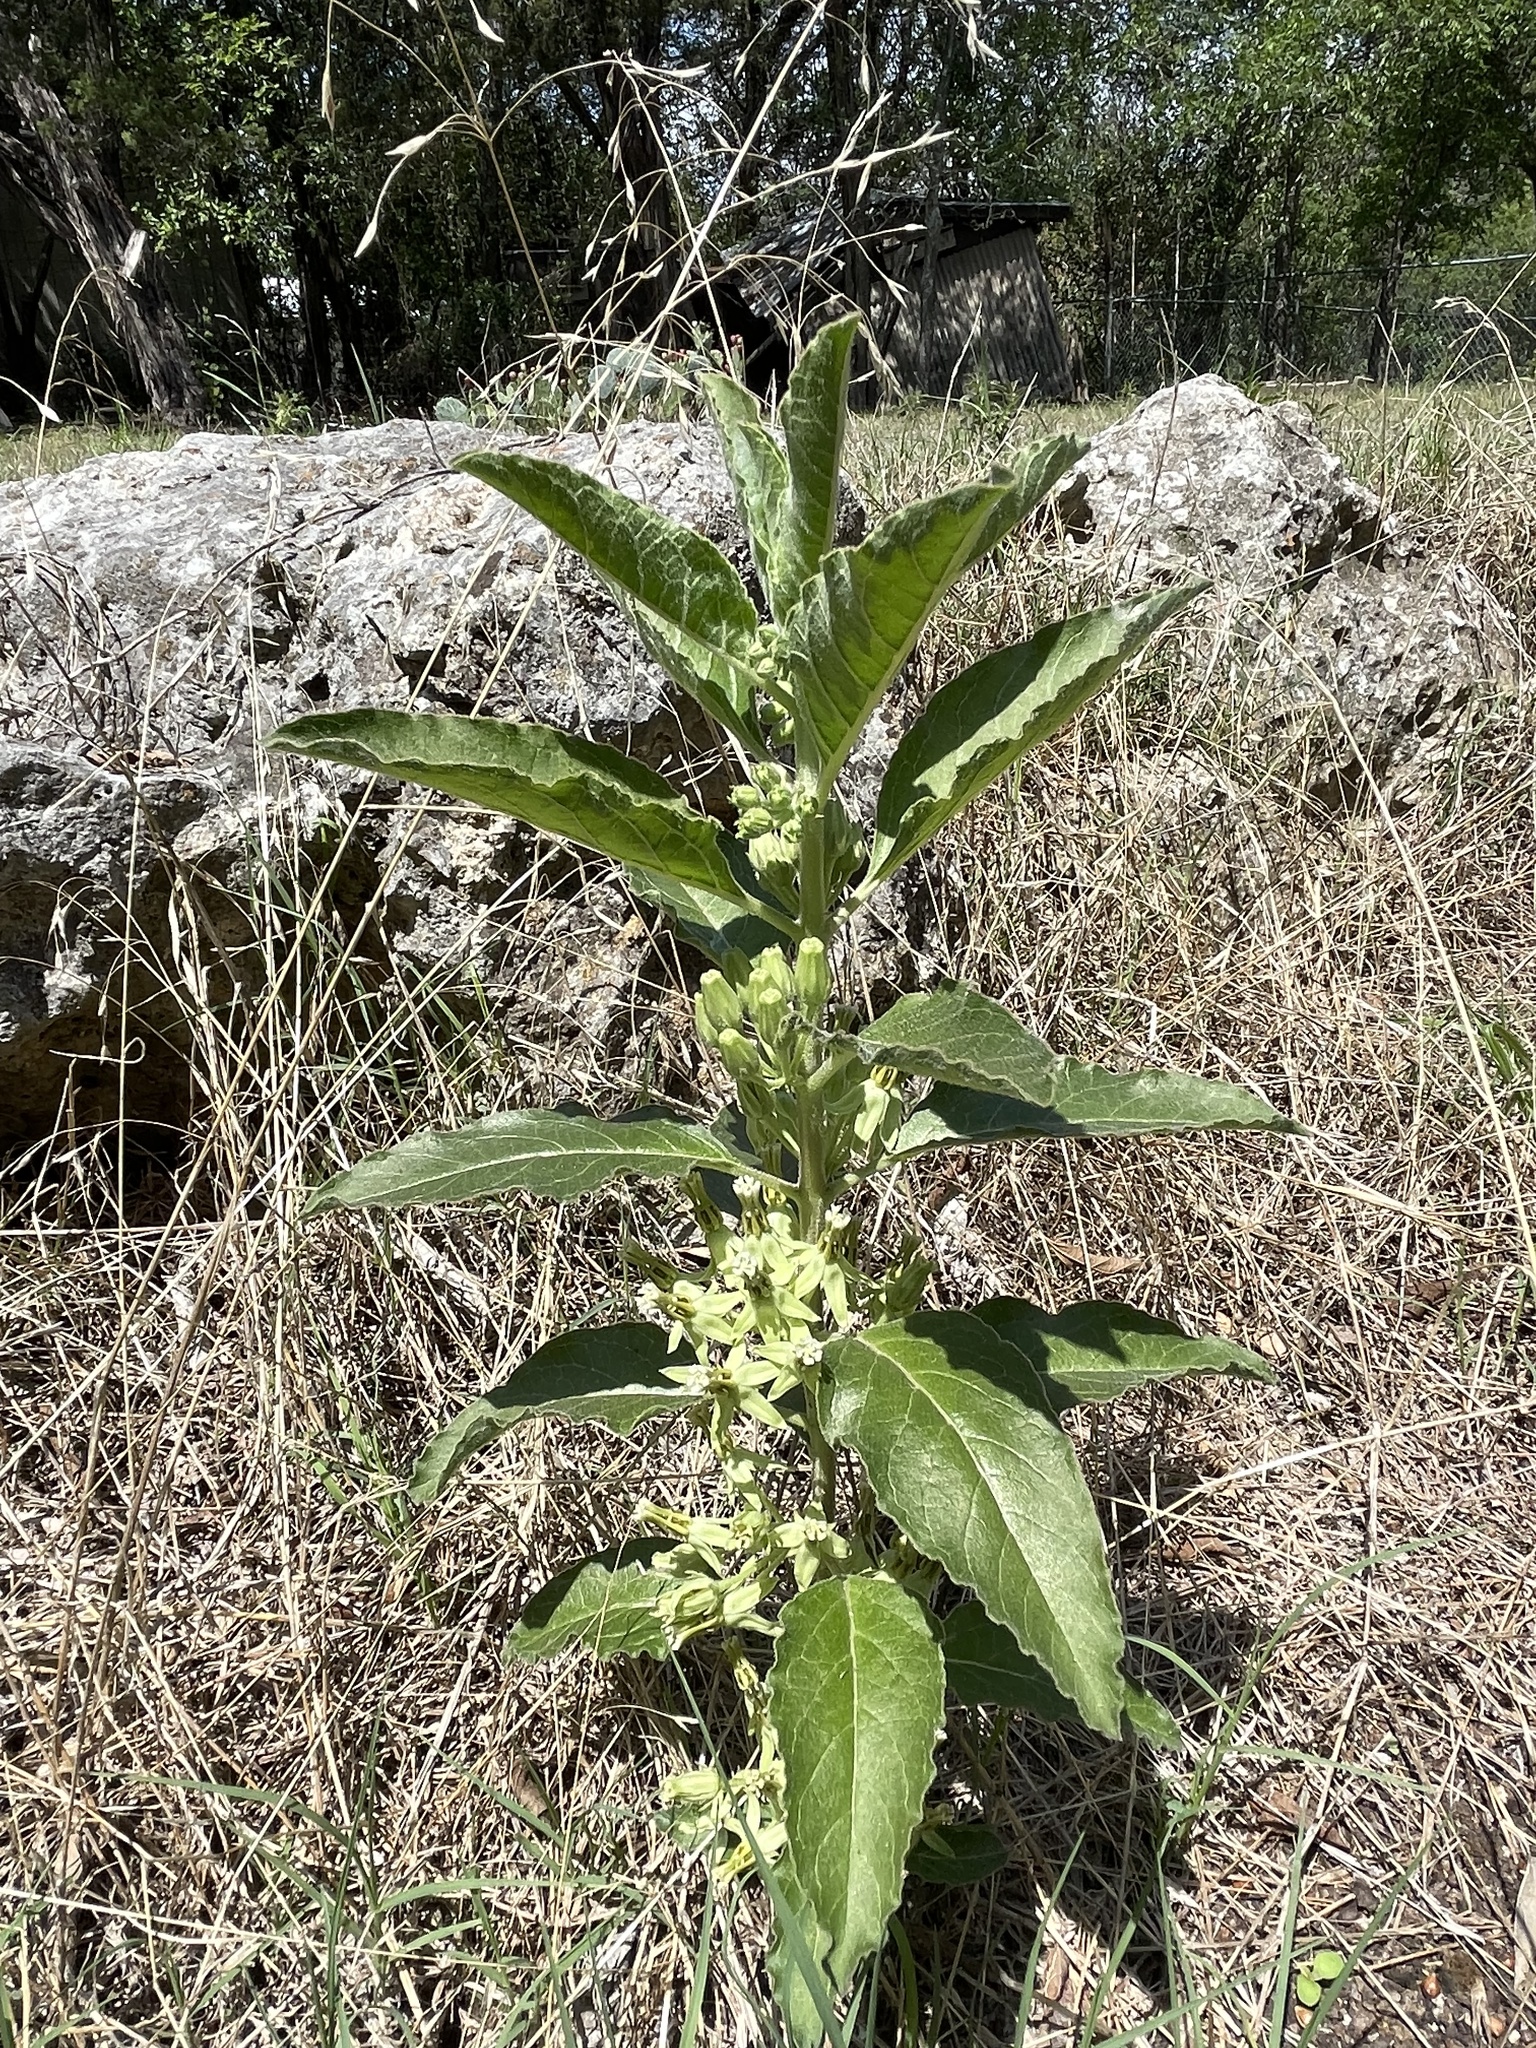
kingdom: Plantae
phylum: Tracheophyta
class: Magnoliopsida
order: Gentianales
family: Apocynaceae
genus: Asclepias
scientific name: Asclepias oenotheroides
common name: Zizotes milkweed
